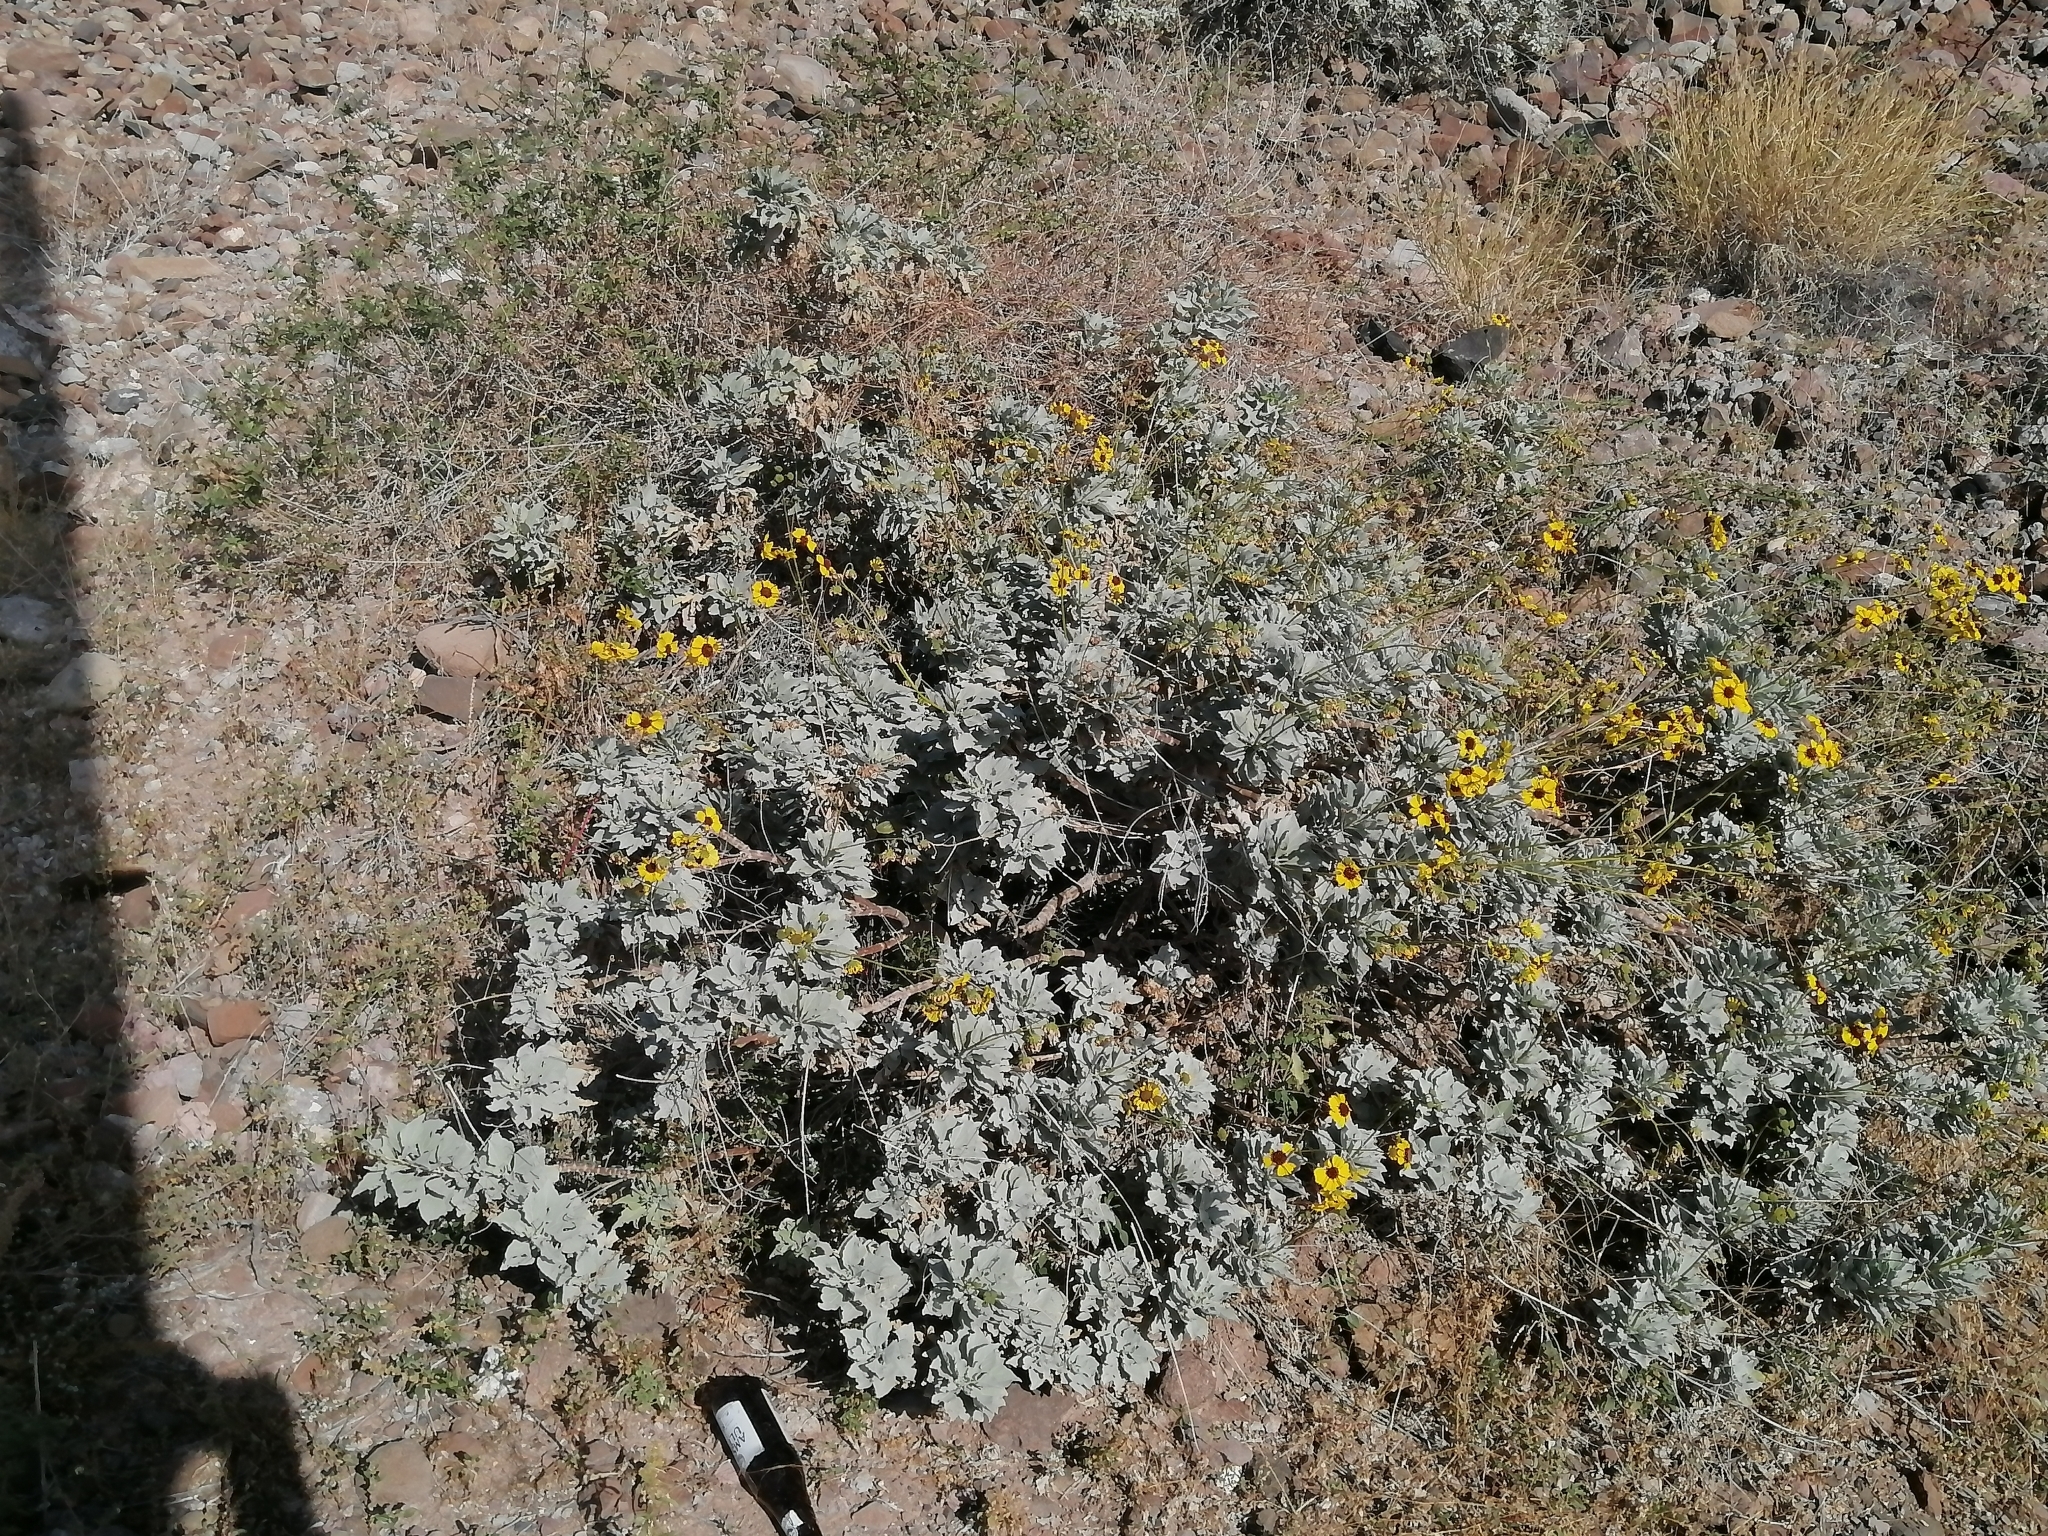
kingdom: Plantae
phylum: Tracheophyta
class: Magnoliopsida
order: Asterales
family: Asteraceae
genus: Encelia
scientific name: Encelia farinosa
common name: Brittlebush
